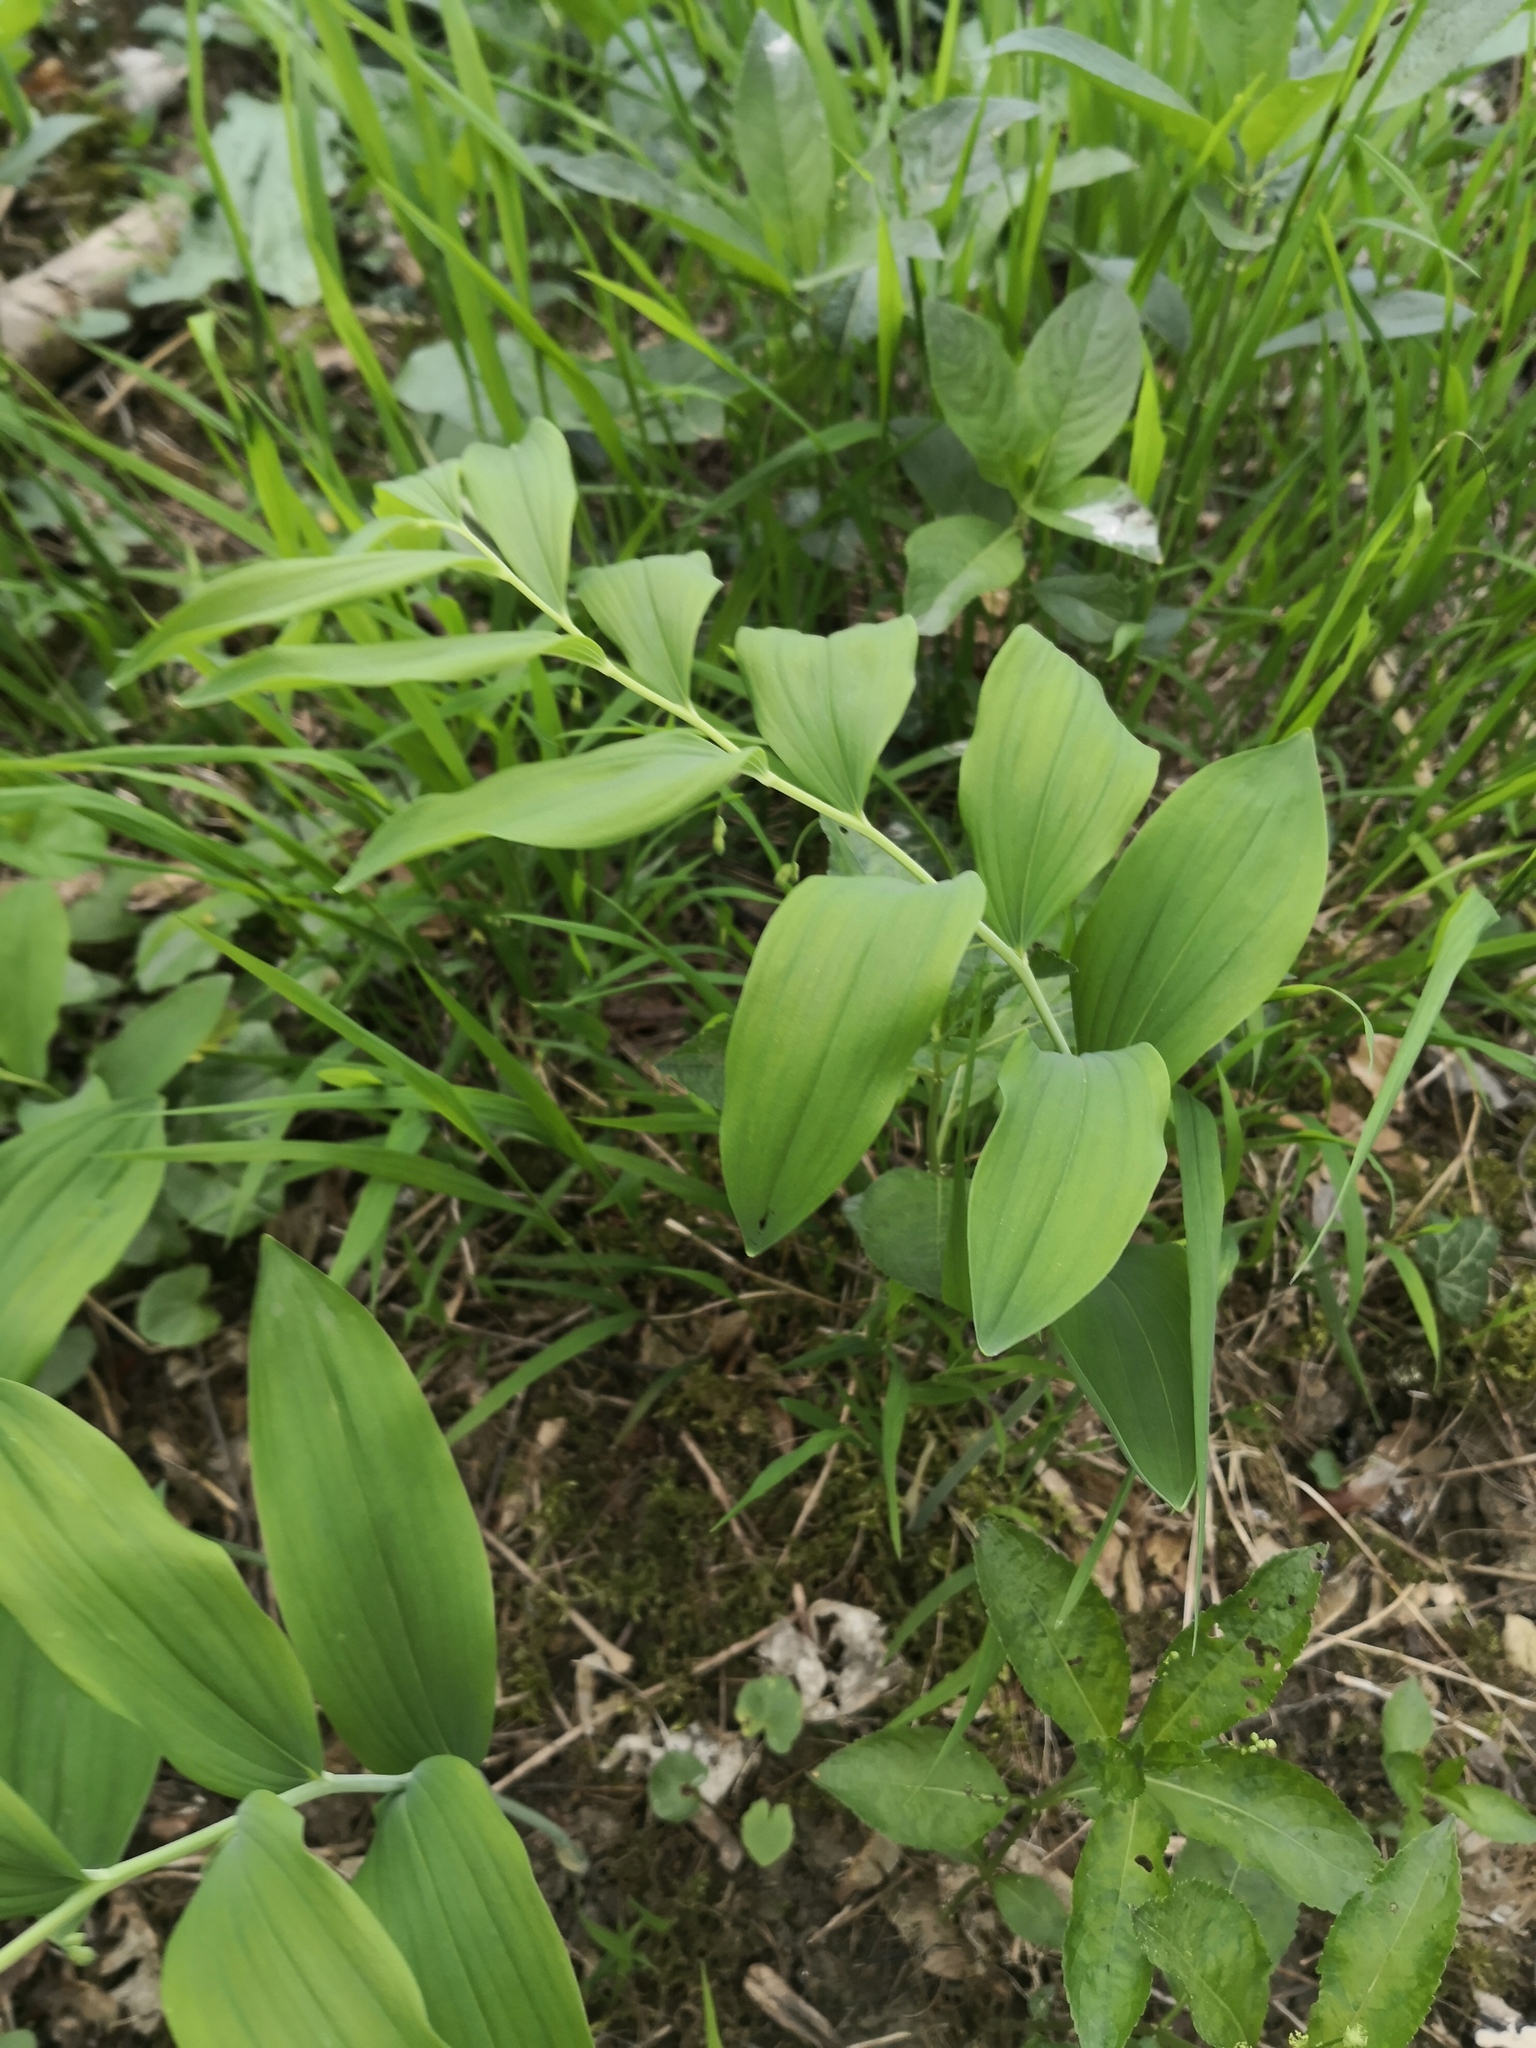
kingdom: Plantae
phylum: Tracheophyta
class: Liliopsida
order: Asparagales
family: Asparagaceae
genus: Polygonatum
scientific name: Polygonatum multiflorum
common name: Solomon's-seal
